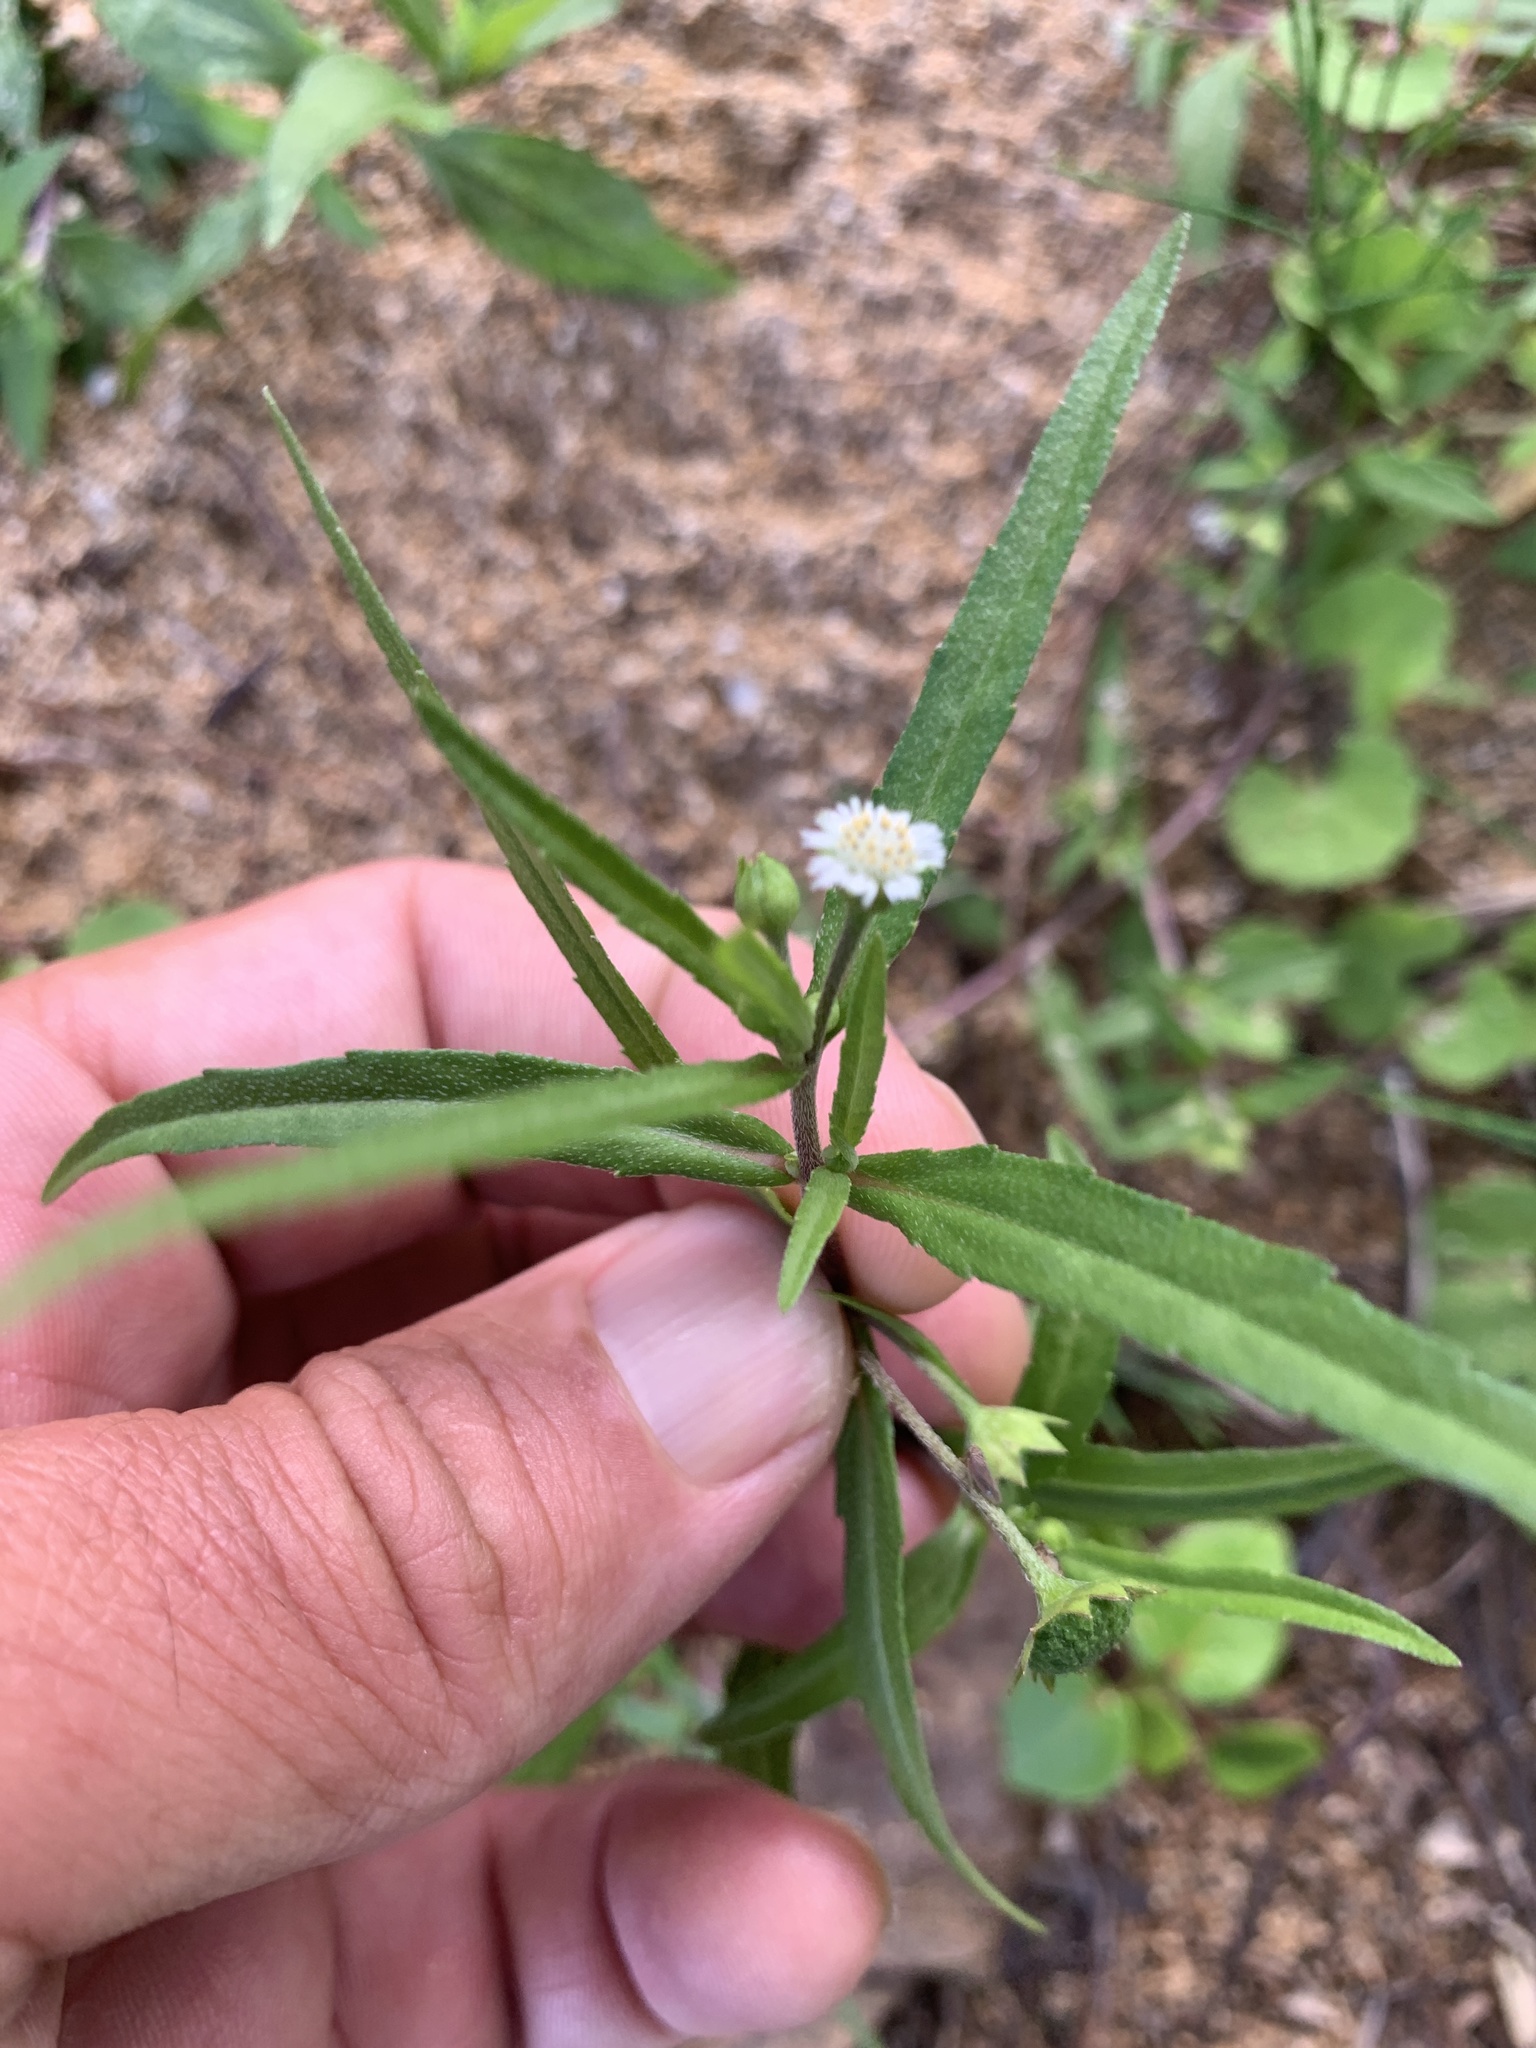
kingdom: Plantae
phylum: Tracheophyta
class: Magnoliopsida
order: Asterales
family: Asteraceae
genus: Eclipta
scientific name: Eclipta prostrata
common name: False daisy
